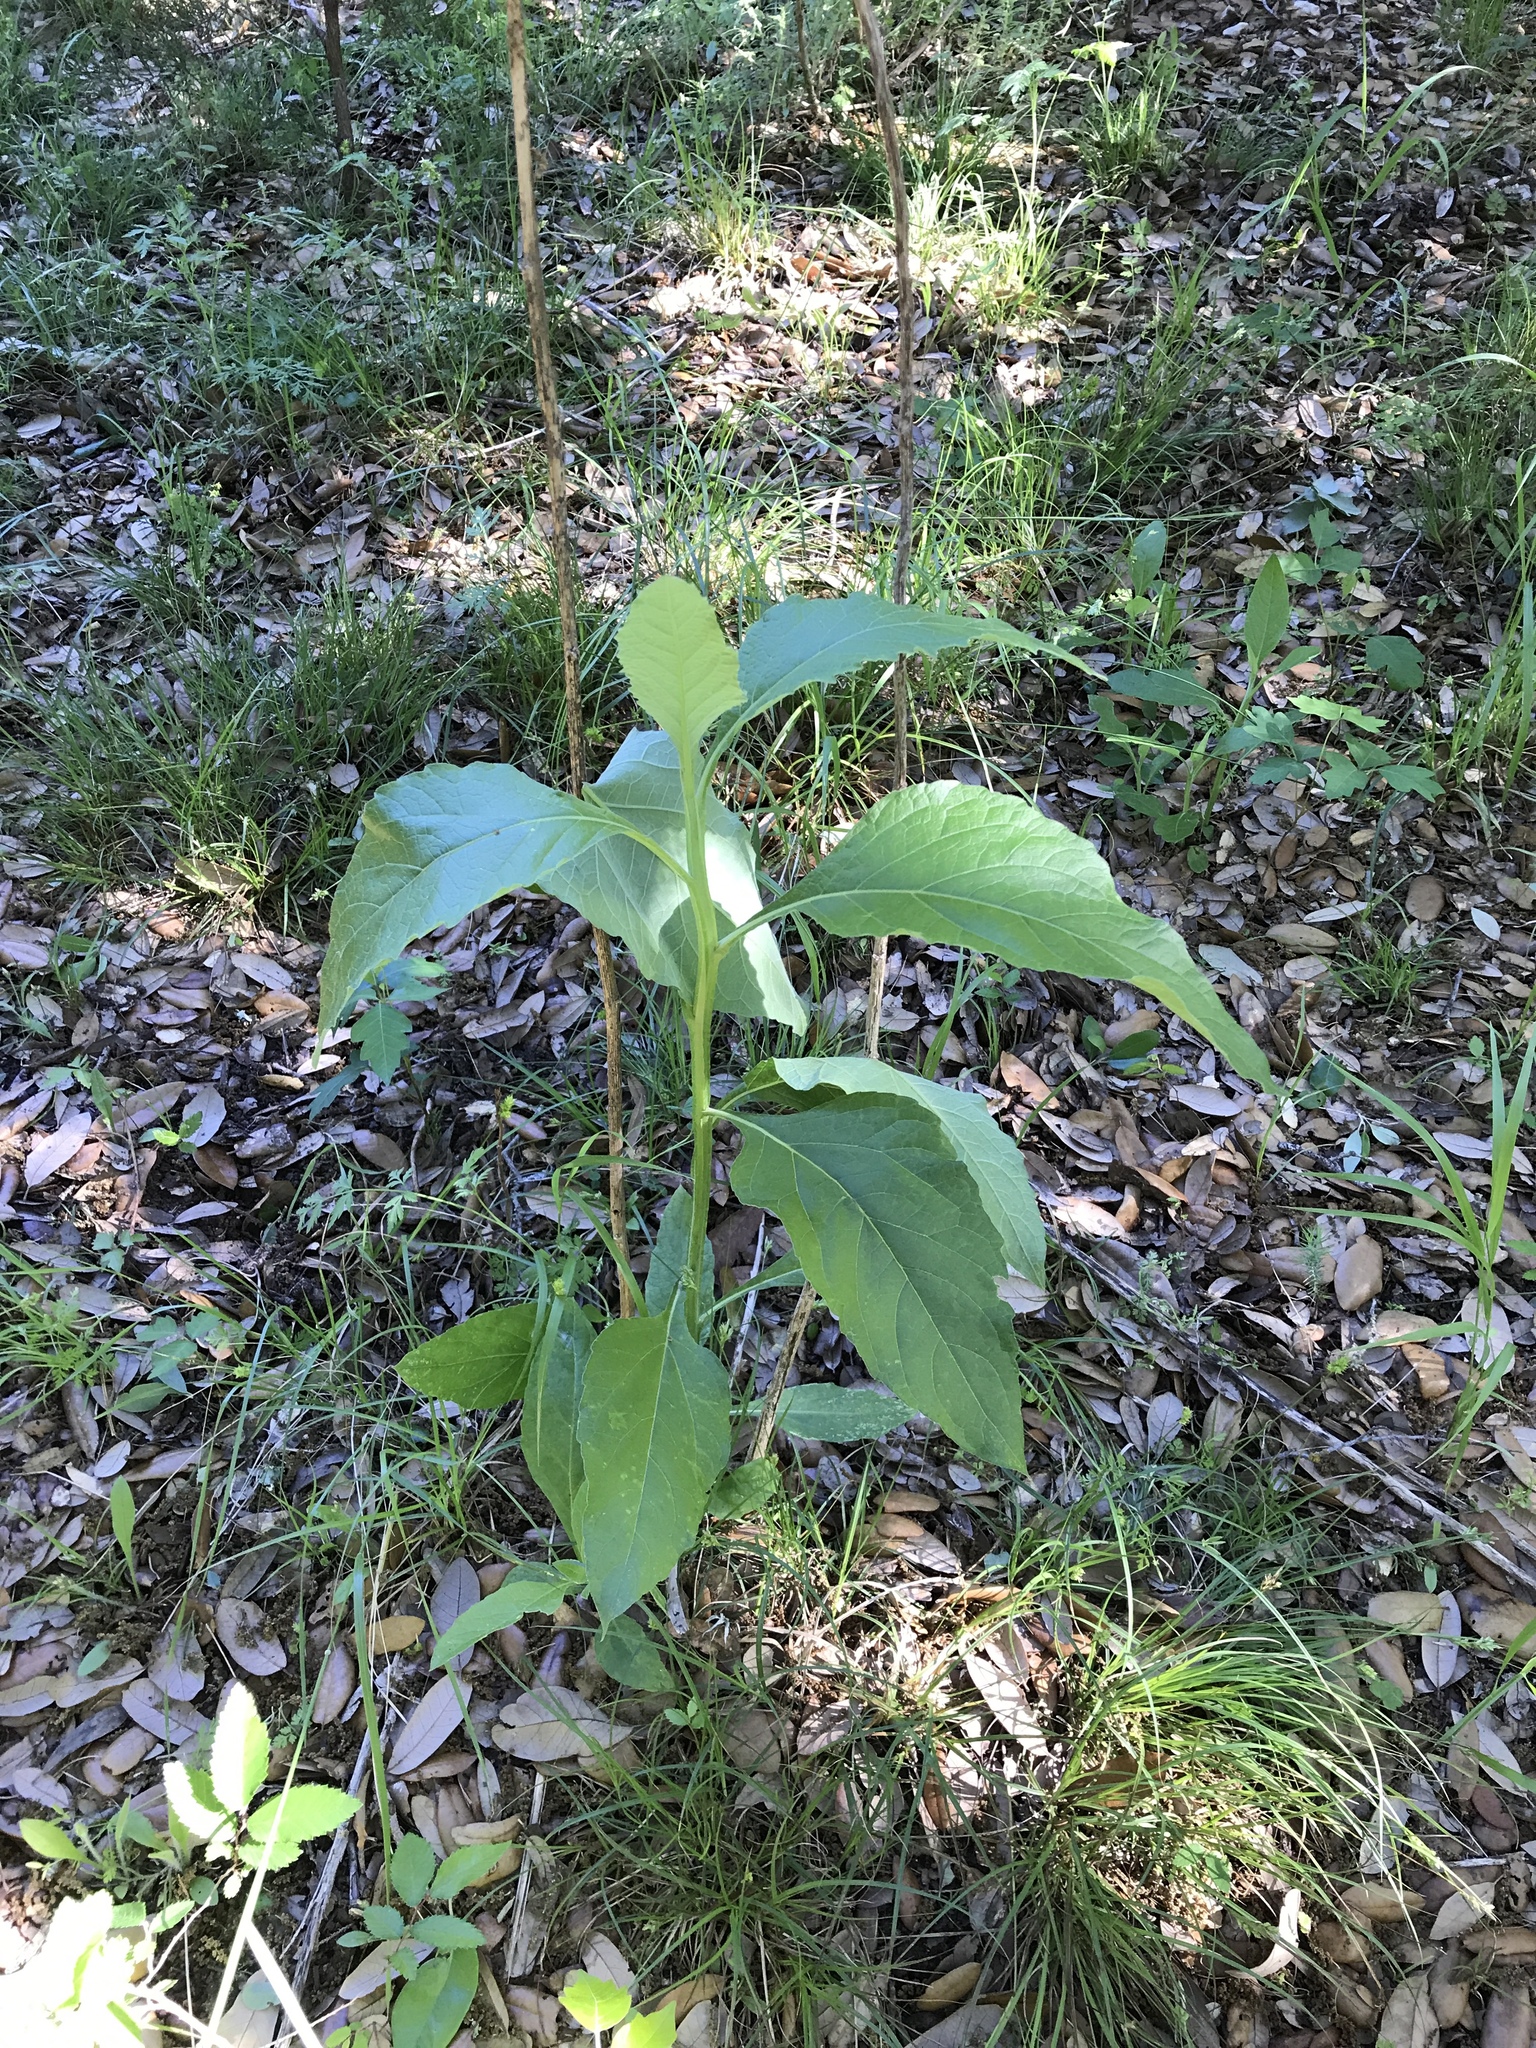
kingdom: Plantae
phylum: Tracheophyta
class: Magnoliopsida
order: Asterales
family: Asteraceae
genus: Verbesina
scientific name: Verbesina virginica
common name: Frostweed
